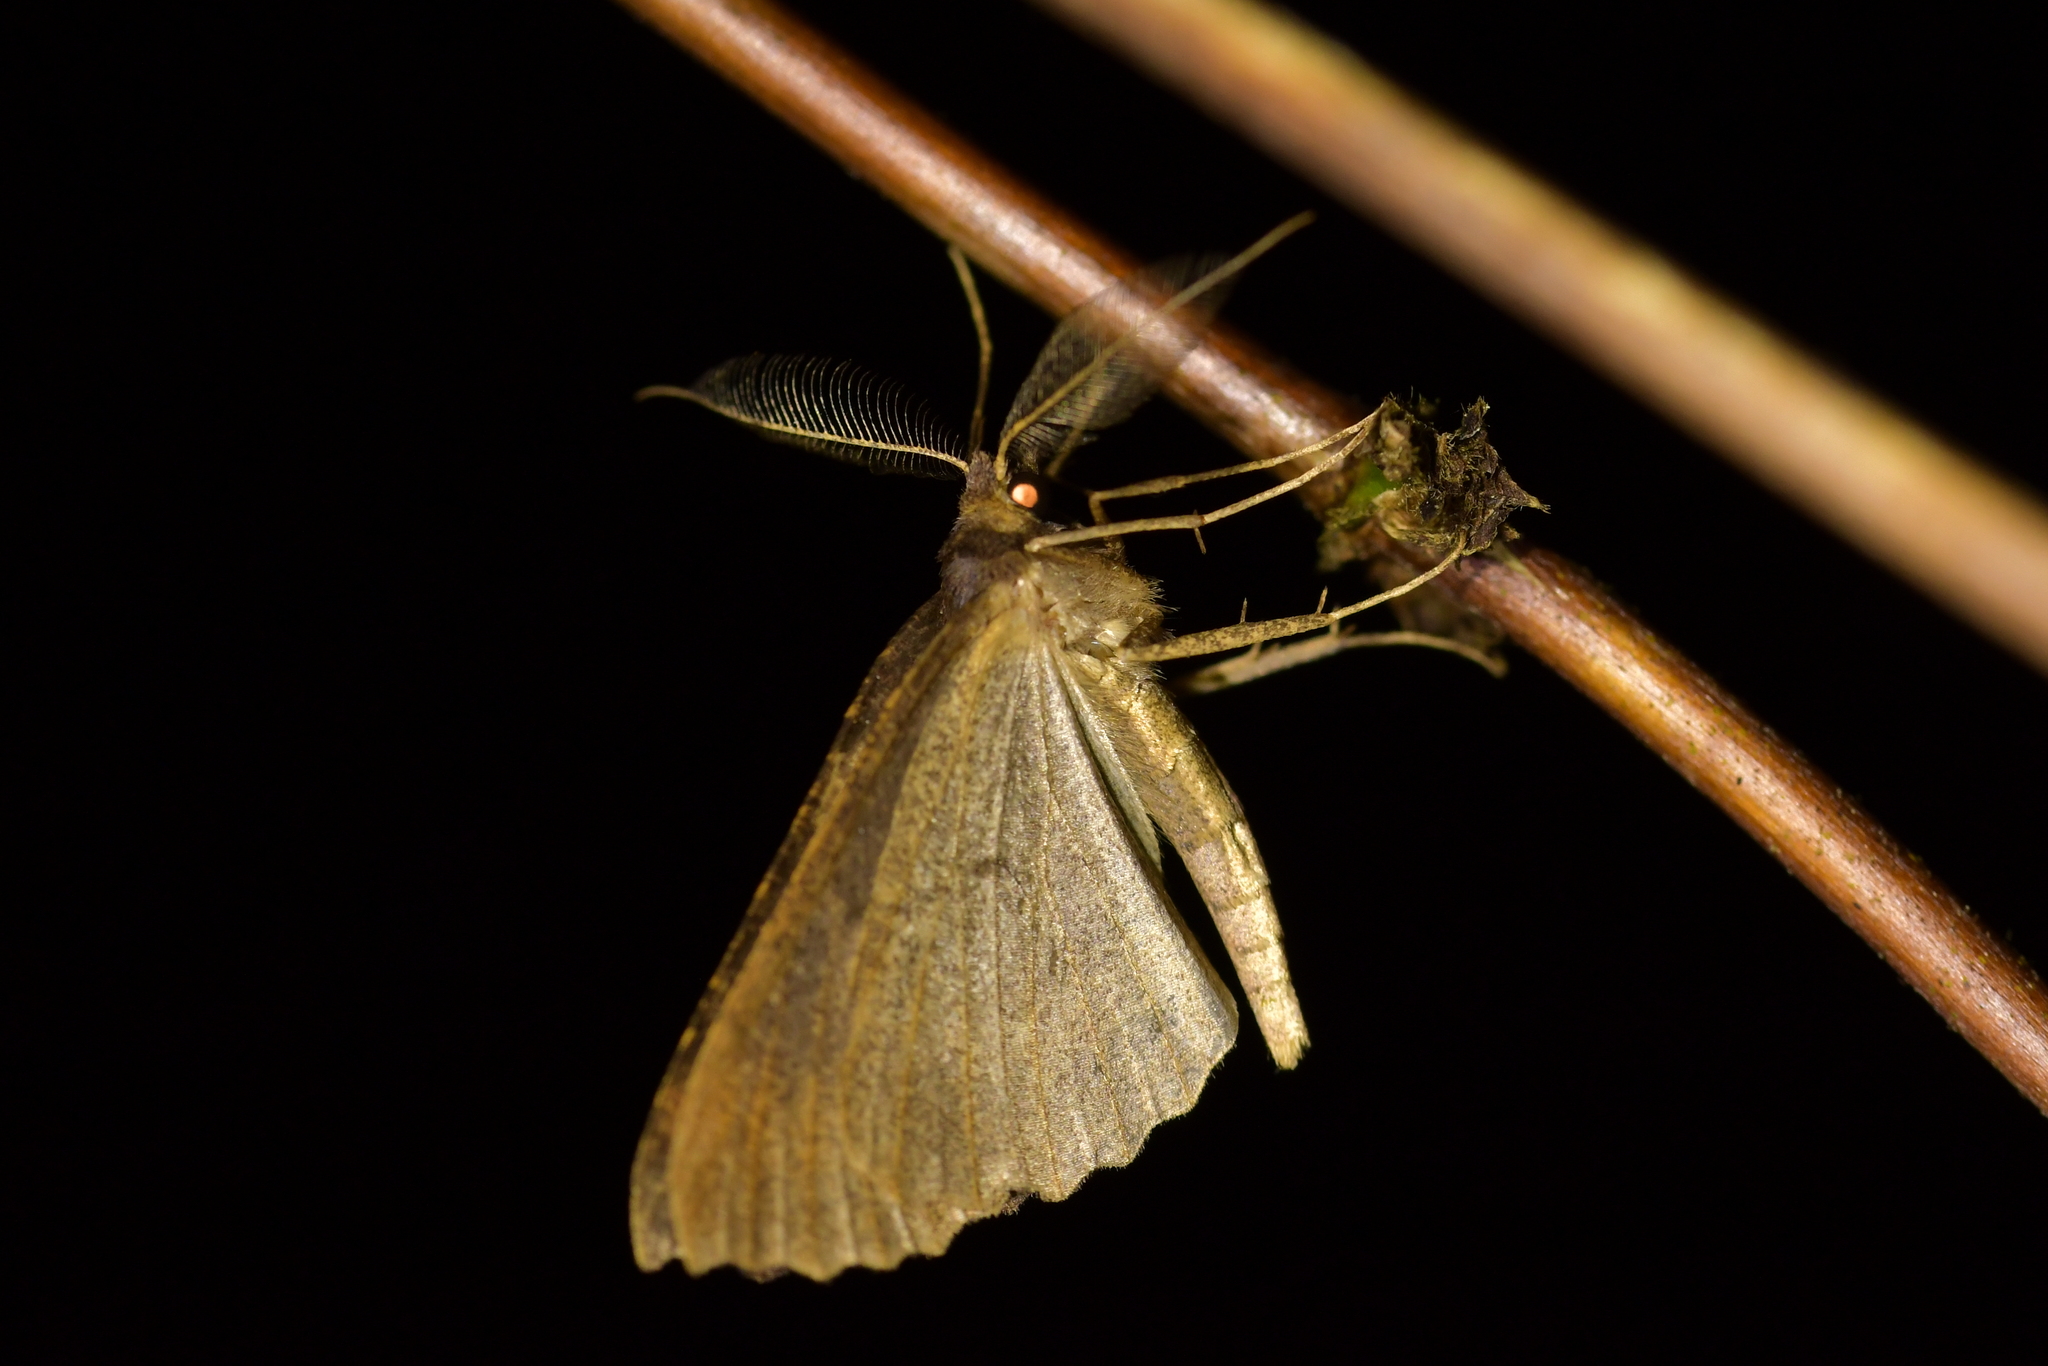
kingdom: Animalia
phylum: Arthropoda
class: Insecta
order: Lepidoptera
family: Geometridae
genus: Cleora
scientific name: Cleora scriptaria
